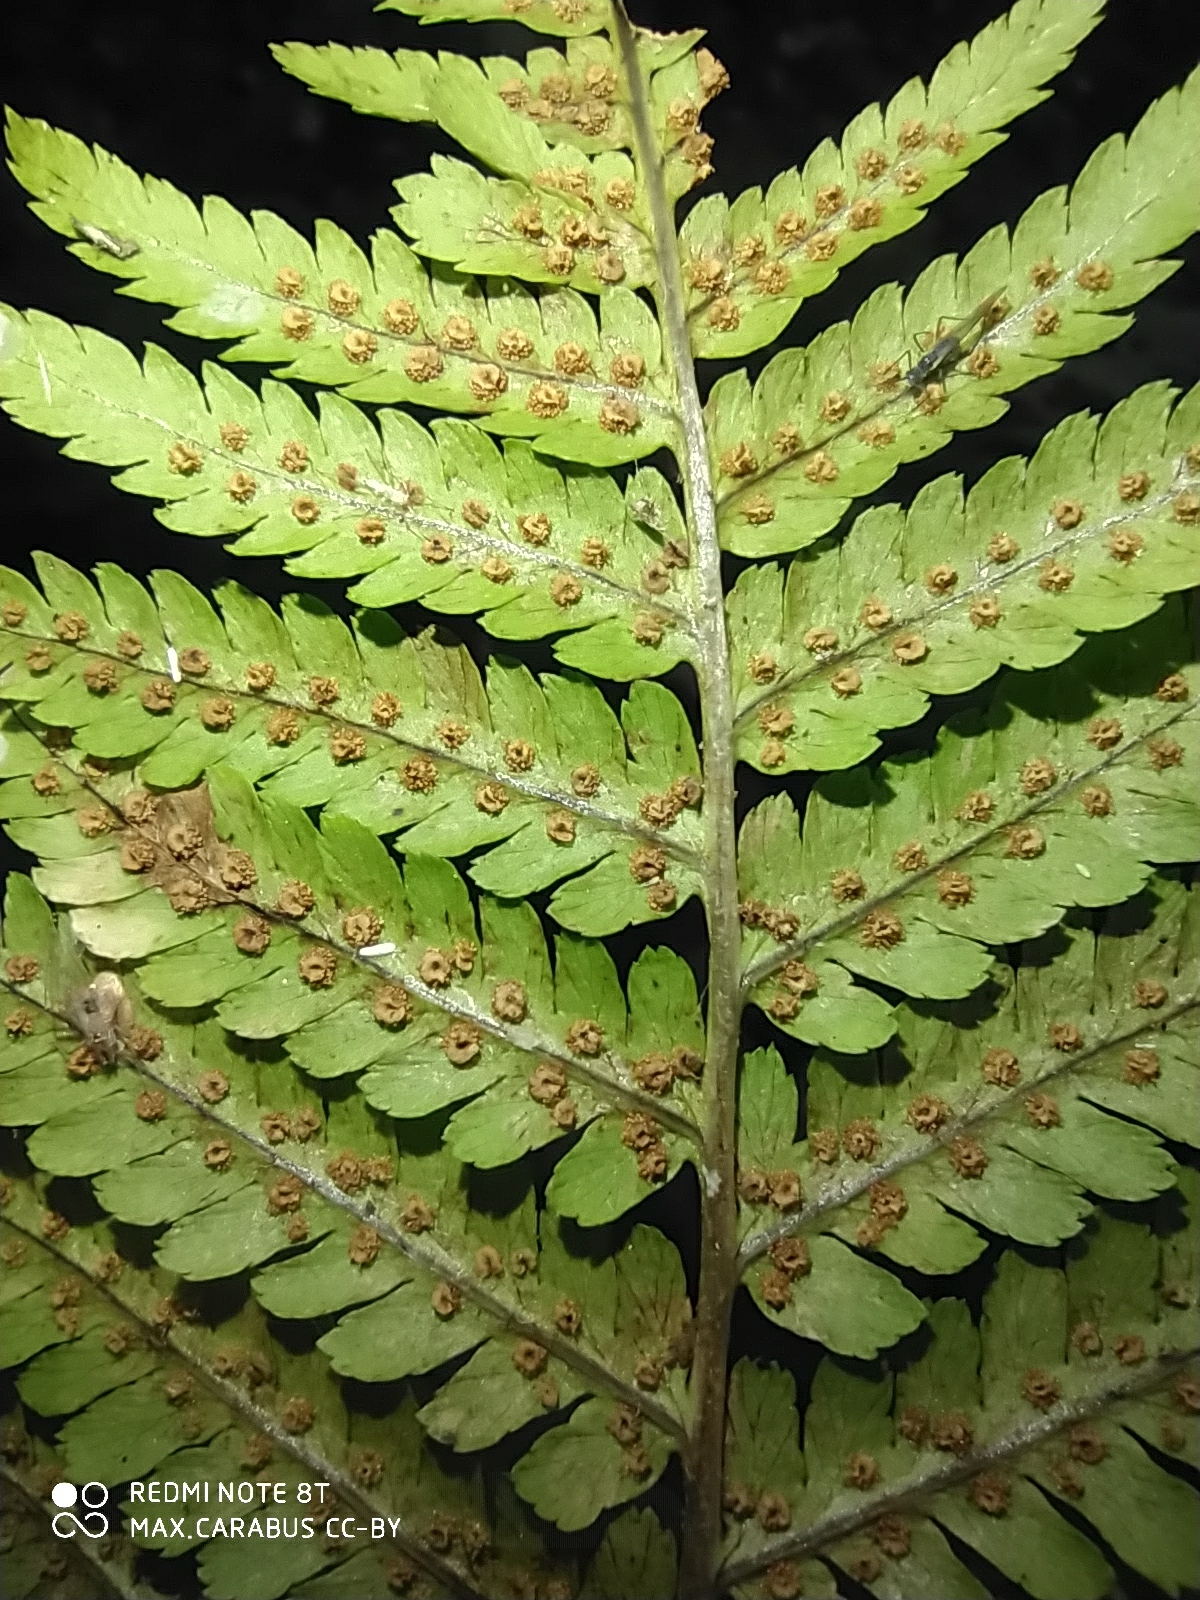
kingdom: Plantae
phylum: Tracheophyta
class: Polypodiopsida
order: Polypodiales
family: Dryopteridaceae
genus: Dryopteris
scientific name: Dryopteris filix-mas
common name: Male fern
